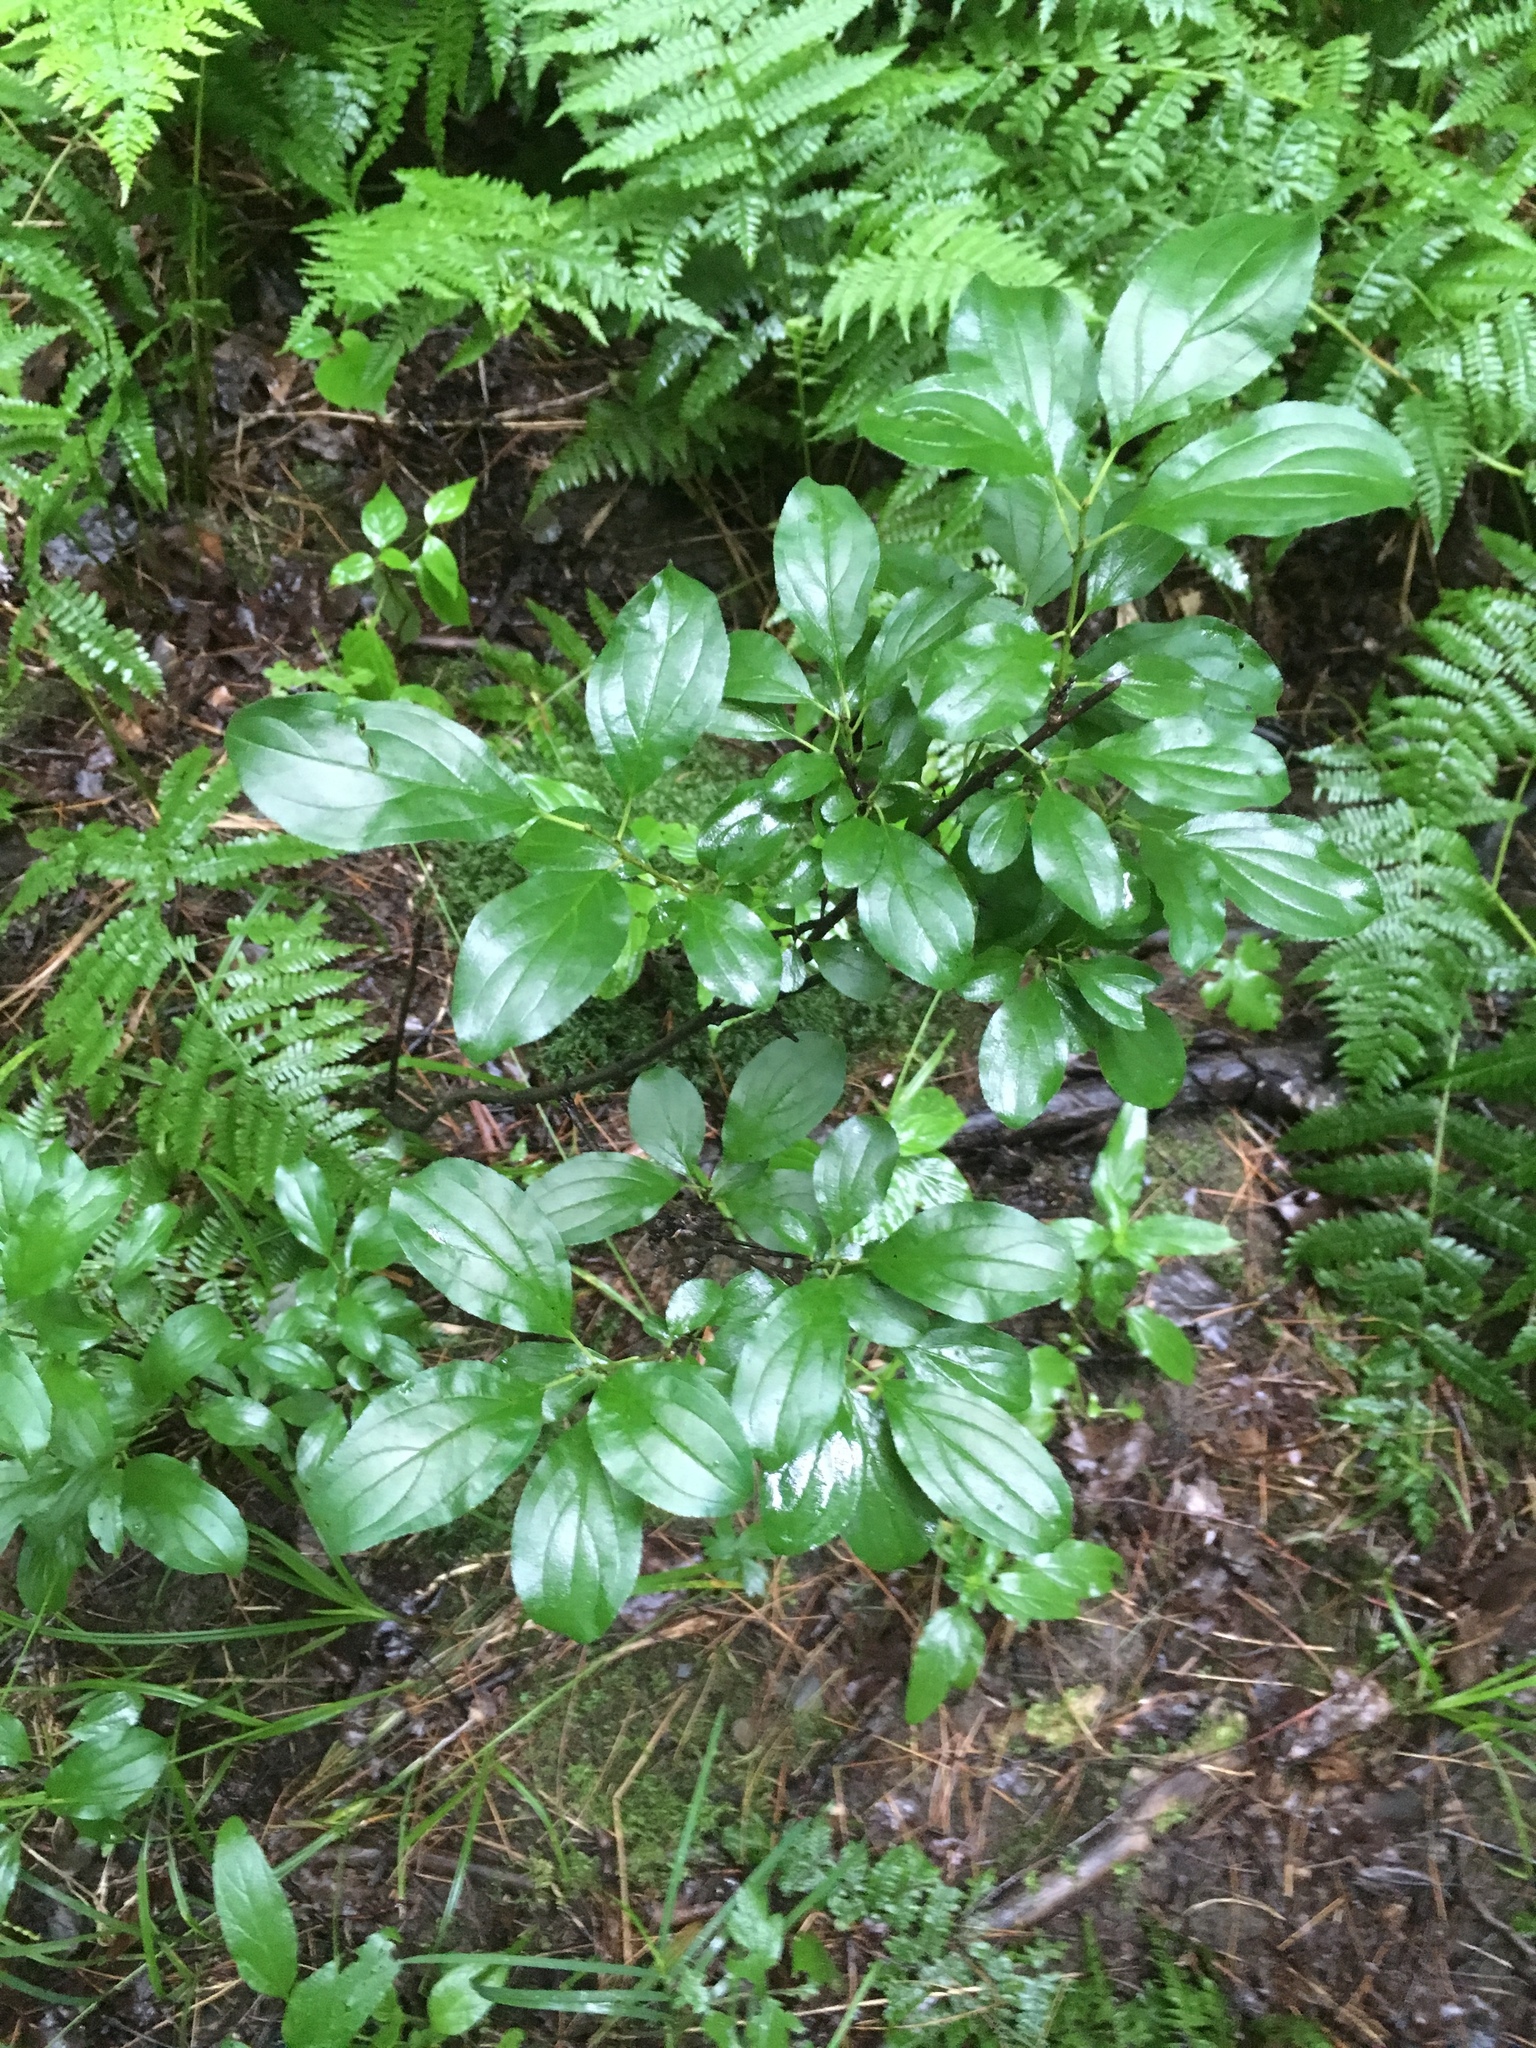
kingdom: Plantae
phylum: Tracheophyta
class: Magnoliopsida
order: Rosales
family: Rhamnaceae
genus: Rhamnus
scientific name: Rhamnus cathartica
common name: Common buckthorn
